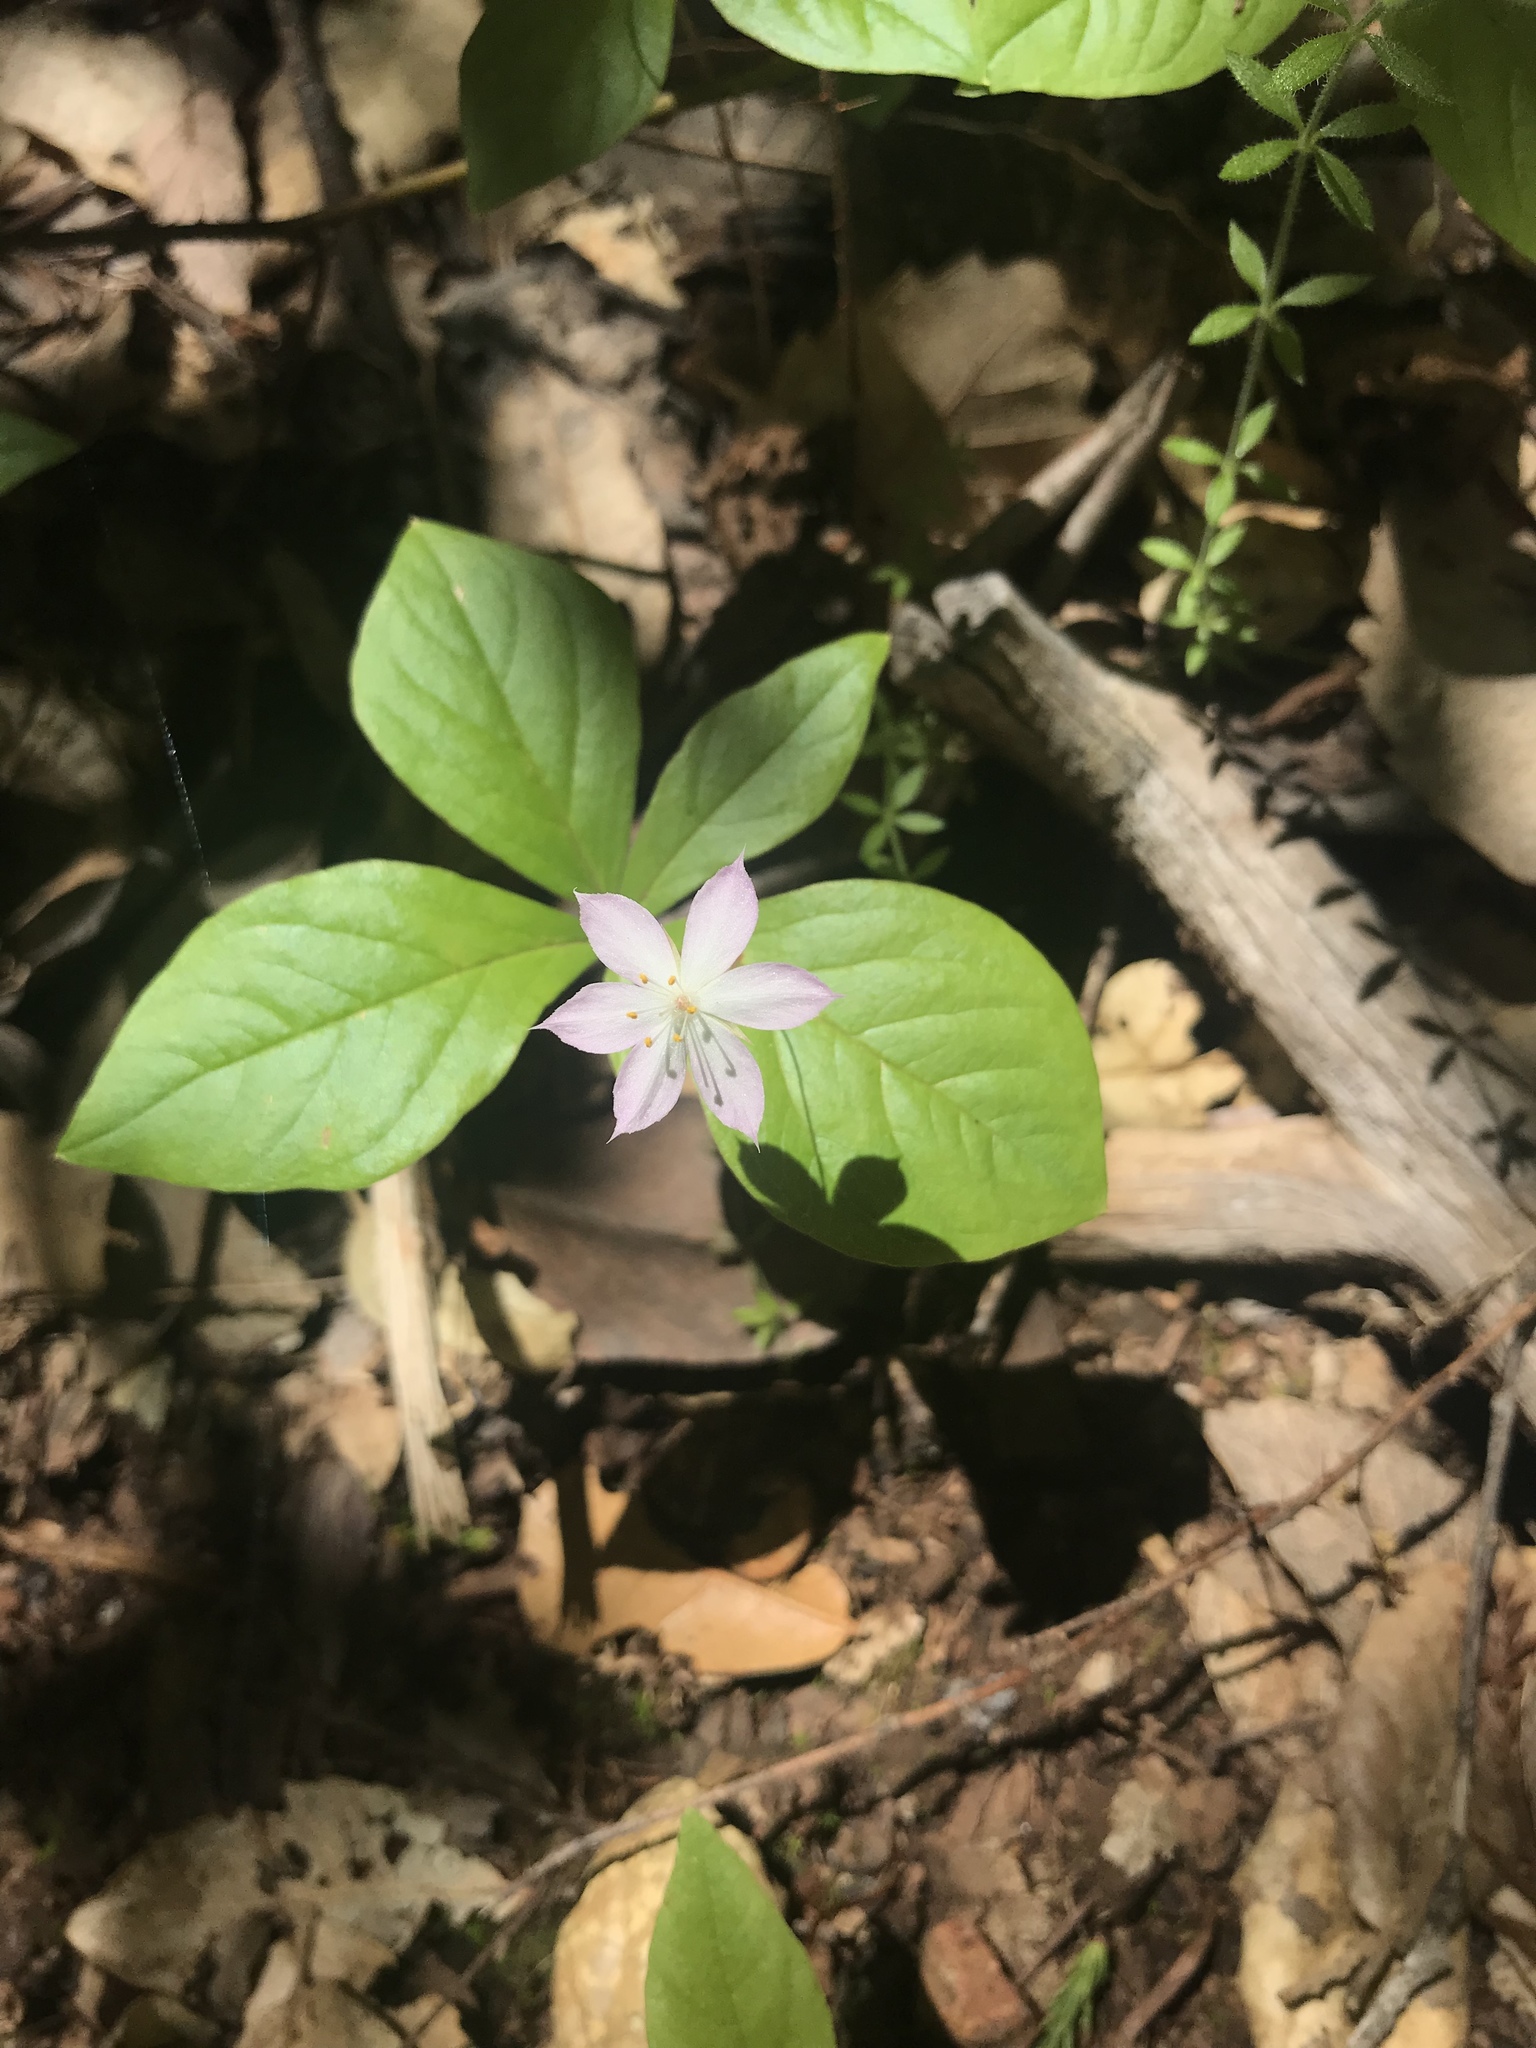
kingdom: Plantae
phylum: Tracheophyta
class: Magnoliopsida
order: Ericales
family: Primulaceae
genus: Lysimachia
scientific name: Lysimachia latifolia
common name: Pacific starflower
